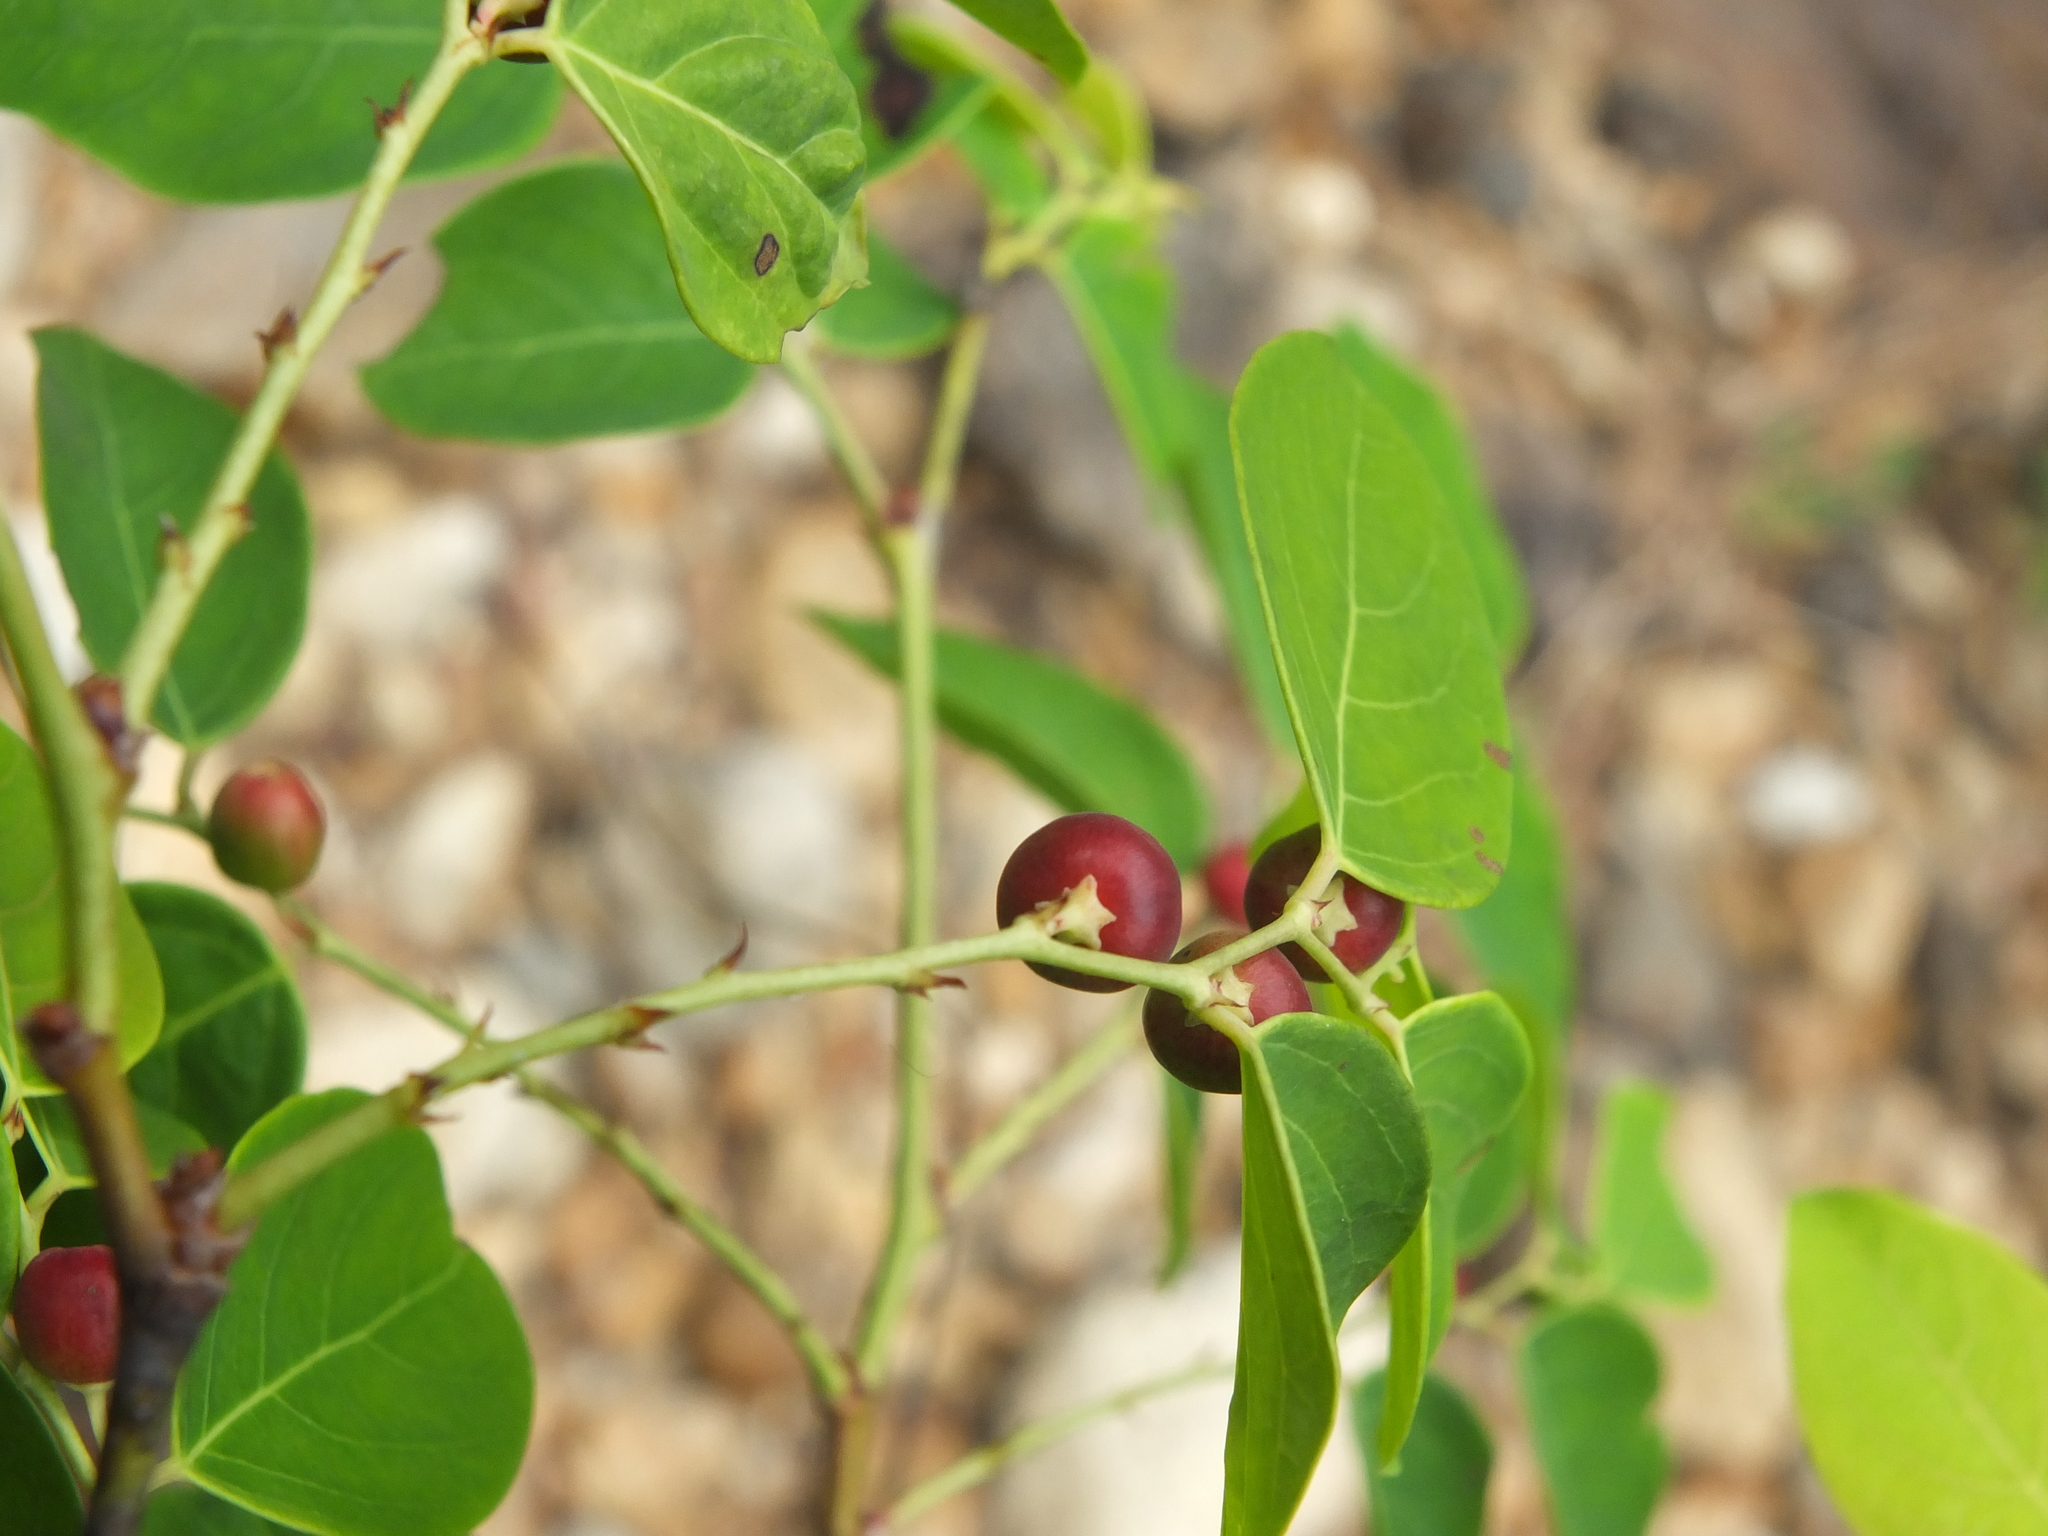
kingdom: Plantae
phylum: Tracheophyta
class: Magnoliopsida
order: Malpighiales
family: Phyllanthaceae
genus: Breynia
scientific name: Breynia vitis-idaea
